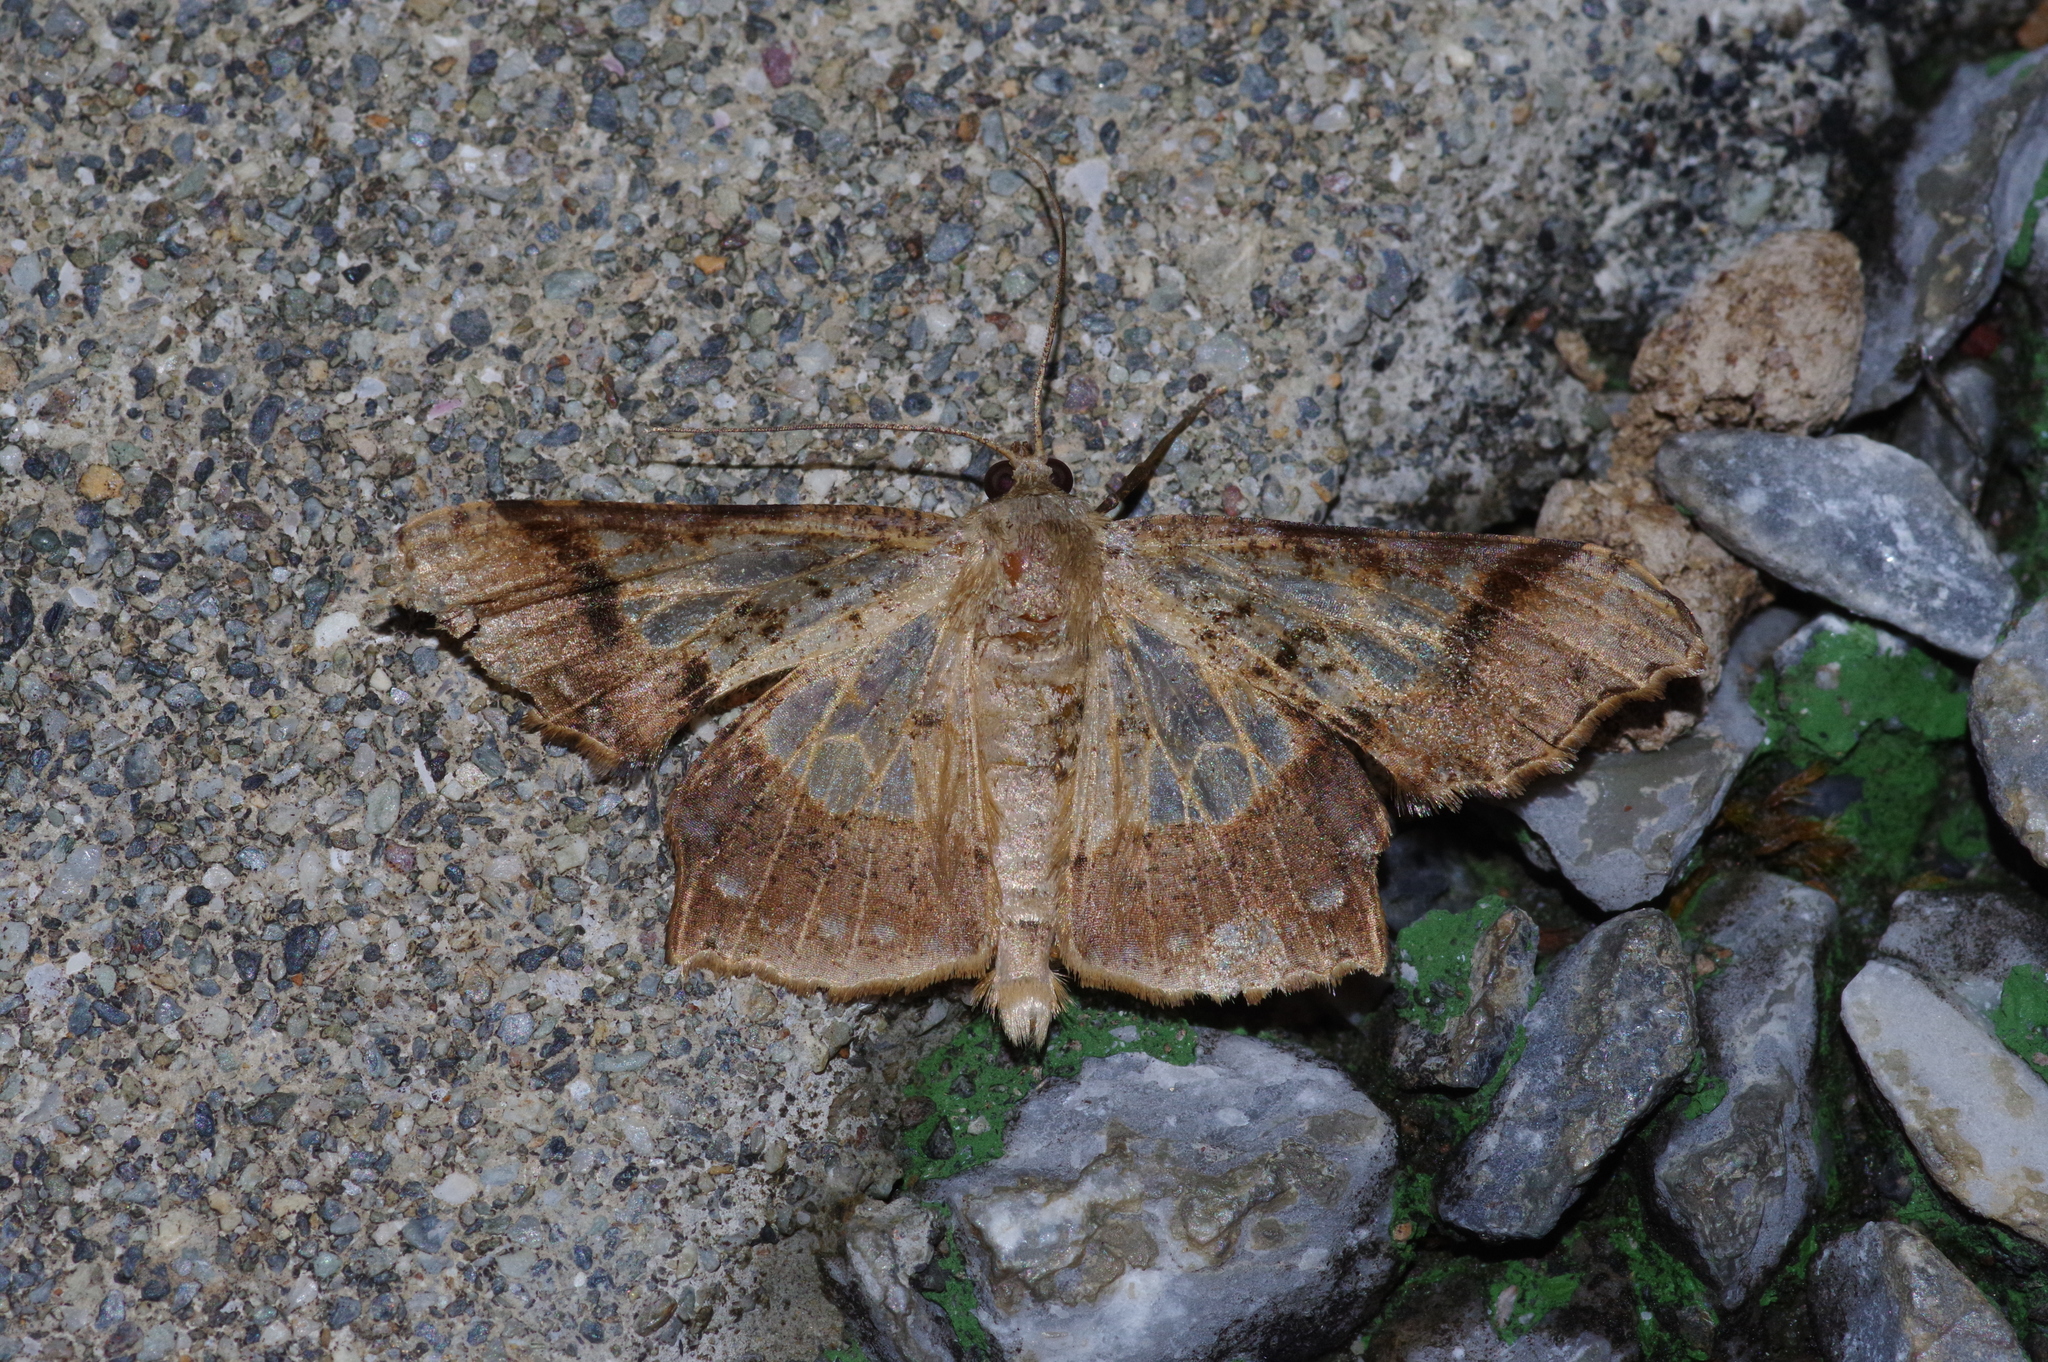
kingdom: Animalia
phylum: Arthropoda
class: Insecta
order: Lepidoptera
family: Geometridae
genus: Krananda
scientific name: Krananda semihyalina
